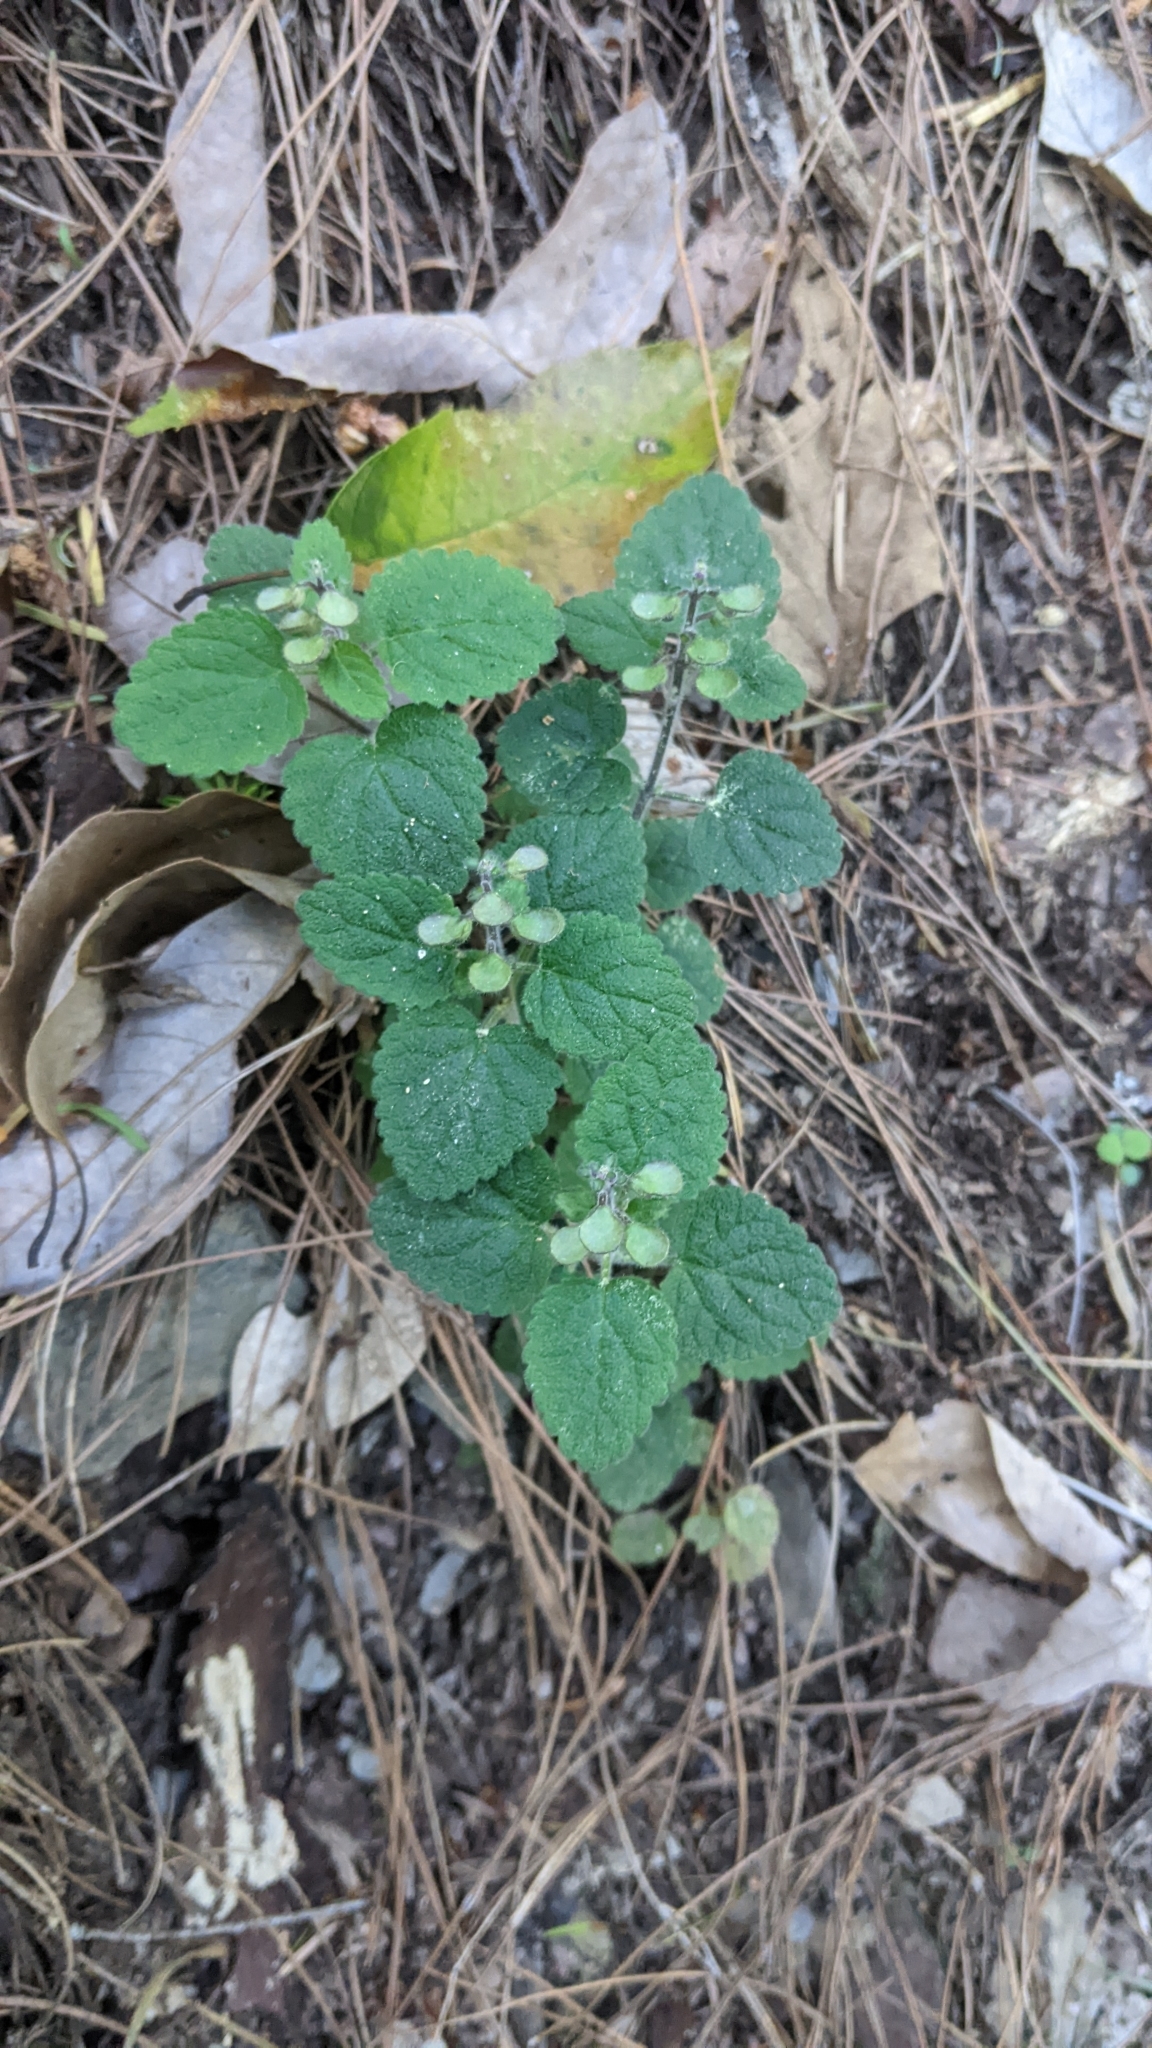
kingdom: Plantae
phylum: Tracheophyta
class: Magnoliopsida
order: Lamiales
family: Lamiaceae
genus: Scutellaria
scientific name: Scutellaria indica
